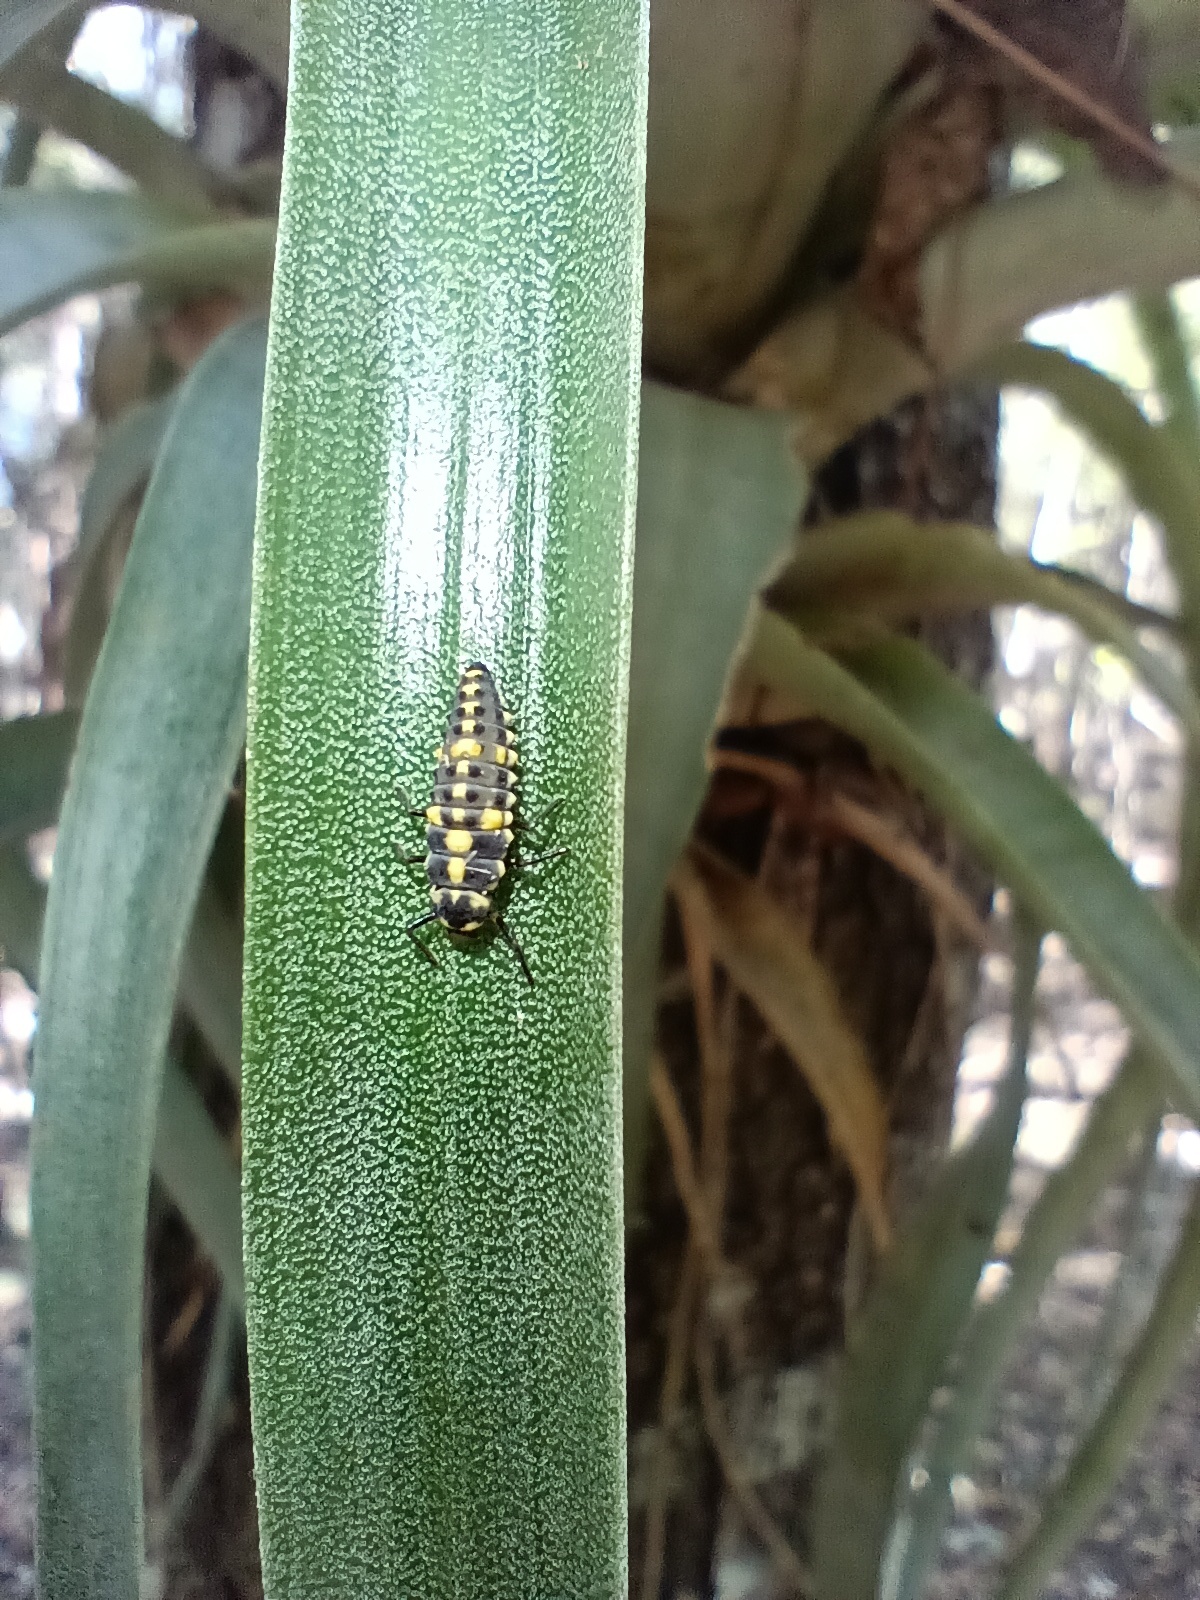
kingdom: Animalia
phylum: Arthropoda
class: Insecta
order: Coleoptera
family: Coccinellidae
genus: Olla
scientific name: Olla v-nigrum
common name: Ashy gray lady beetle
